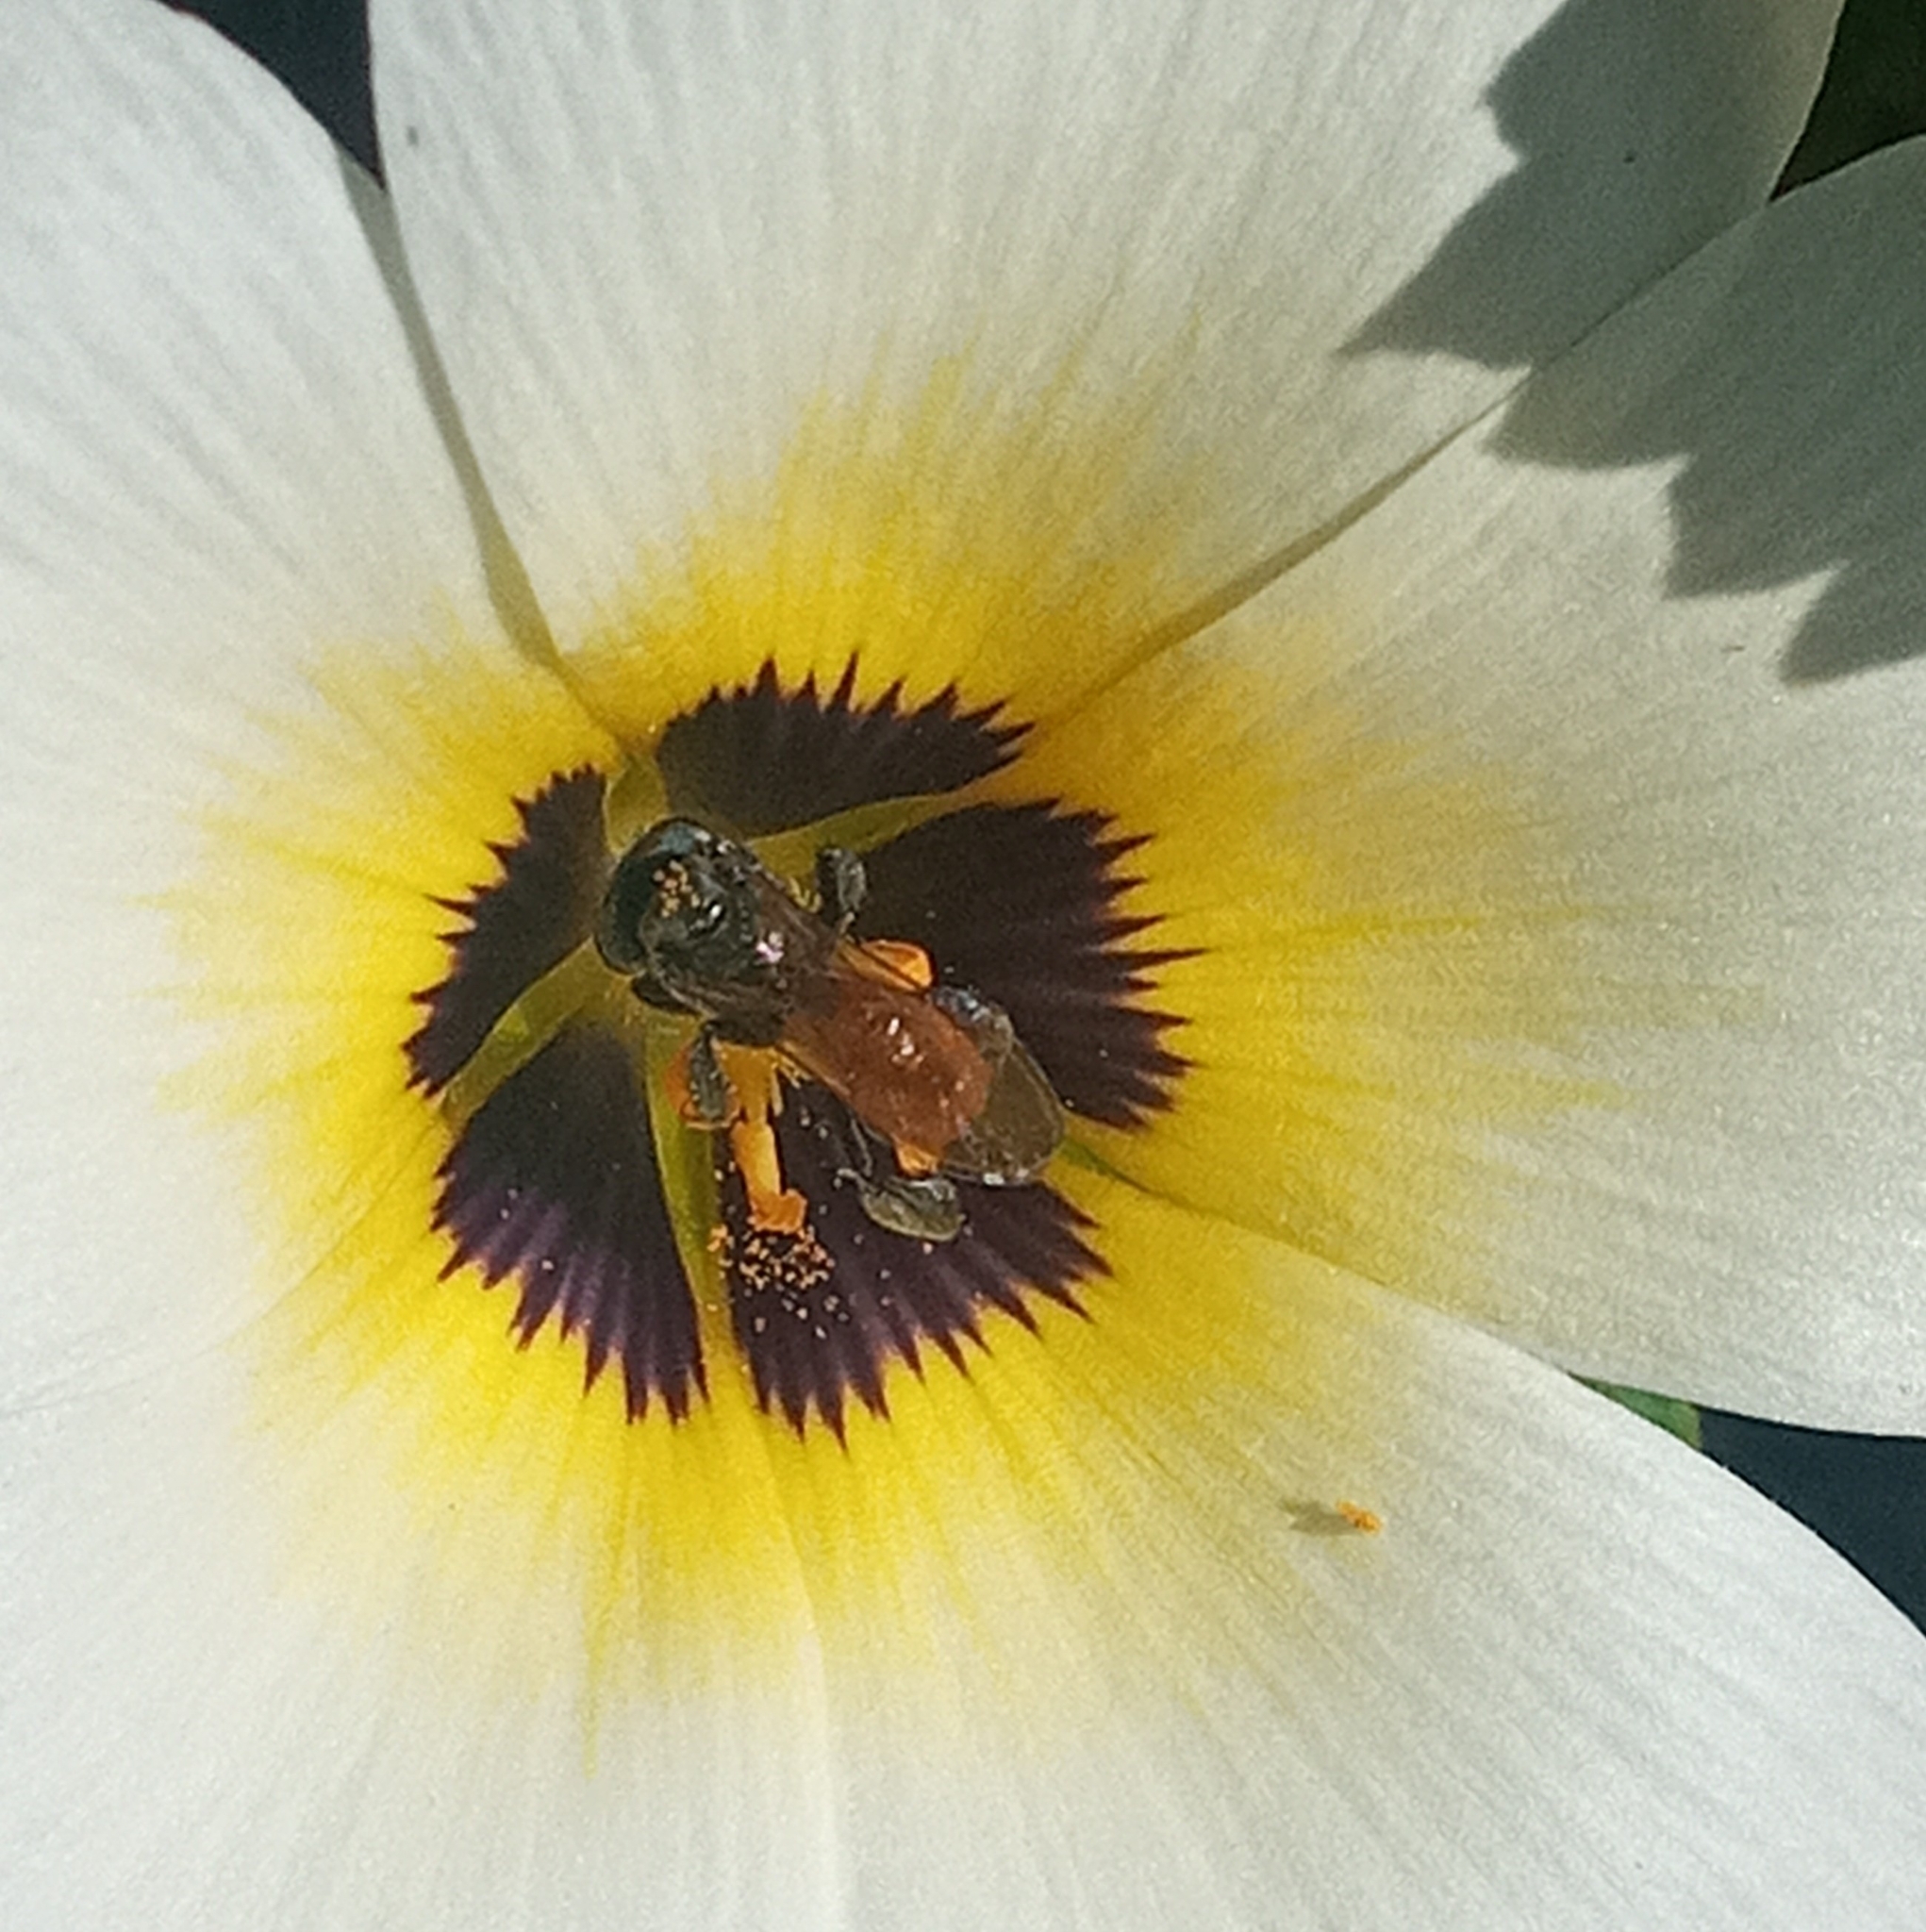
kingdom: Animalia
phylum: Arthropoda
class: Insecta
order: Hymenoptera
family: Apidae
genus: Trigona
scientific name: Trigona fulviventris
